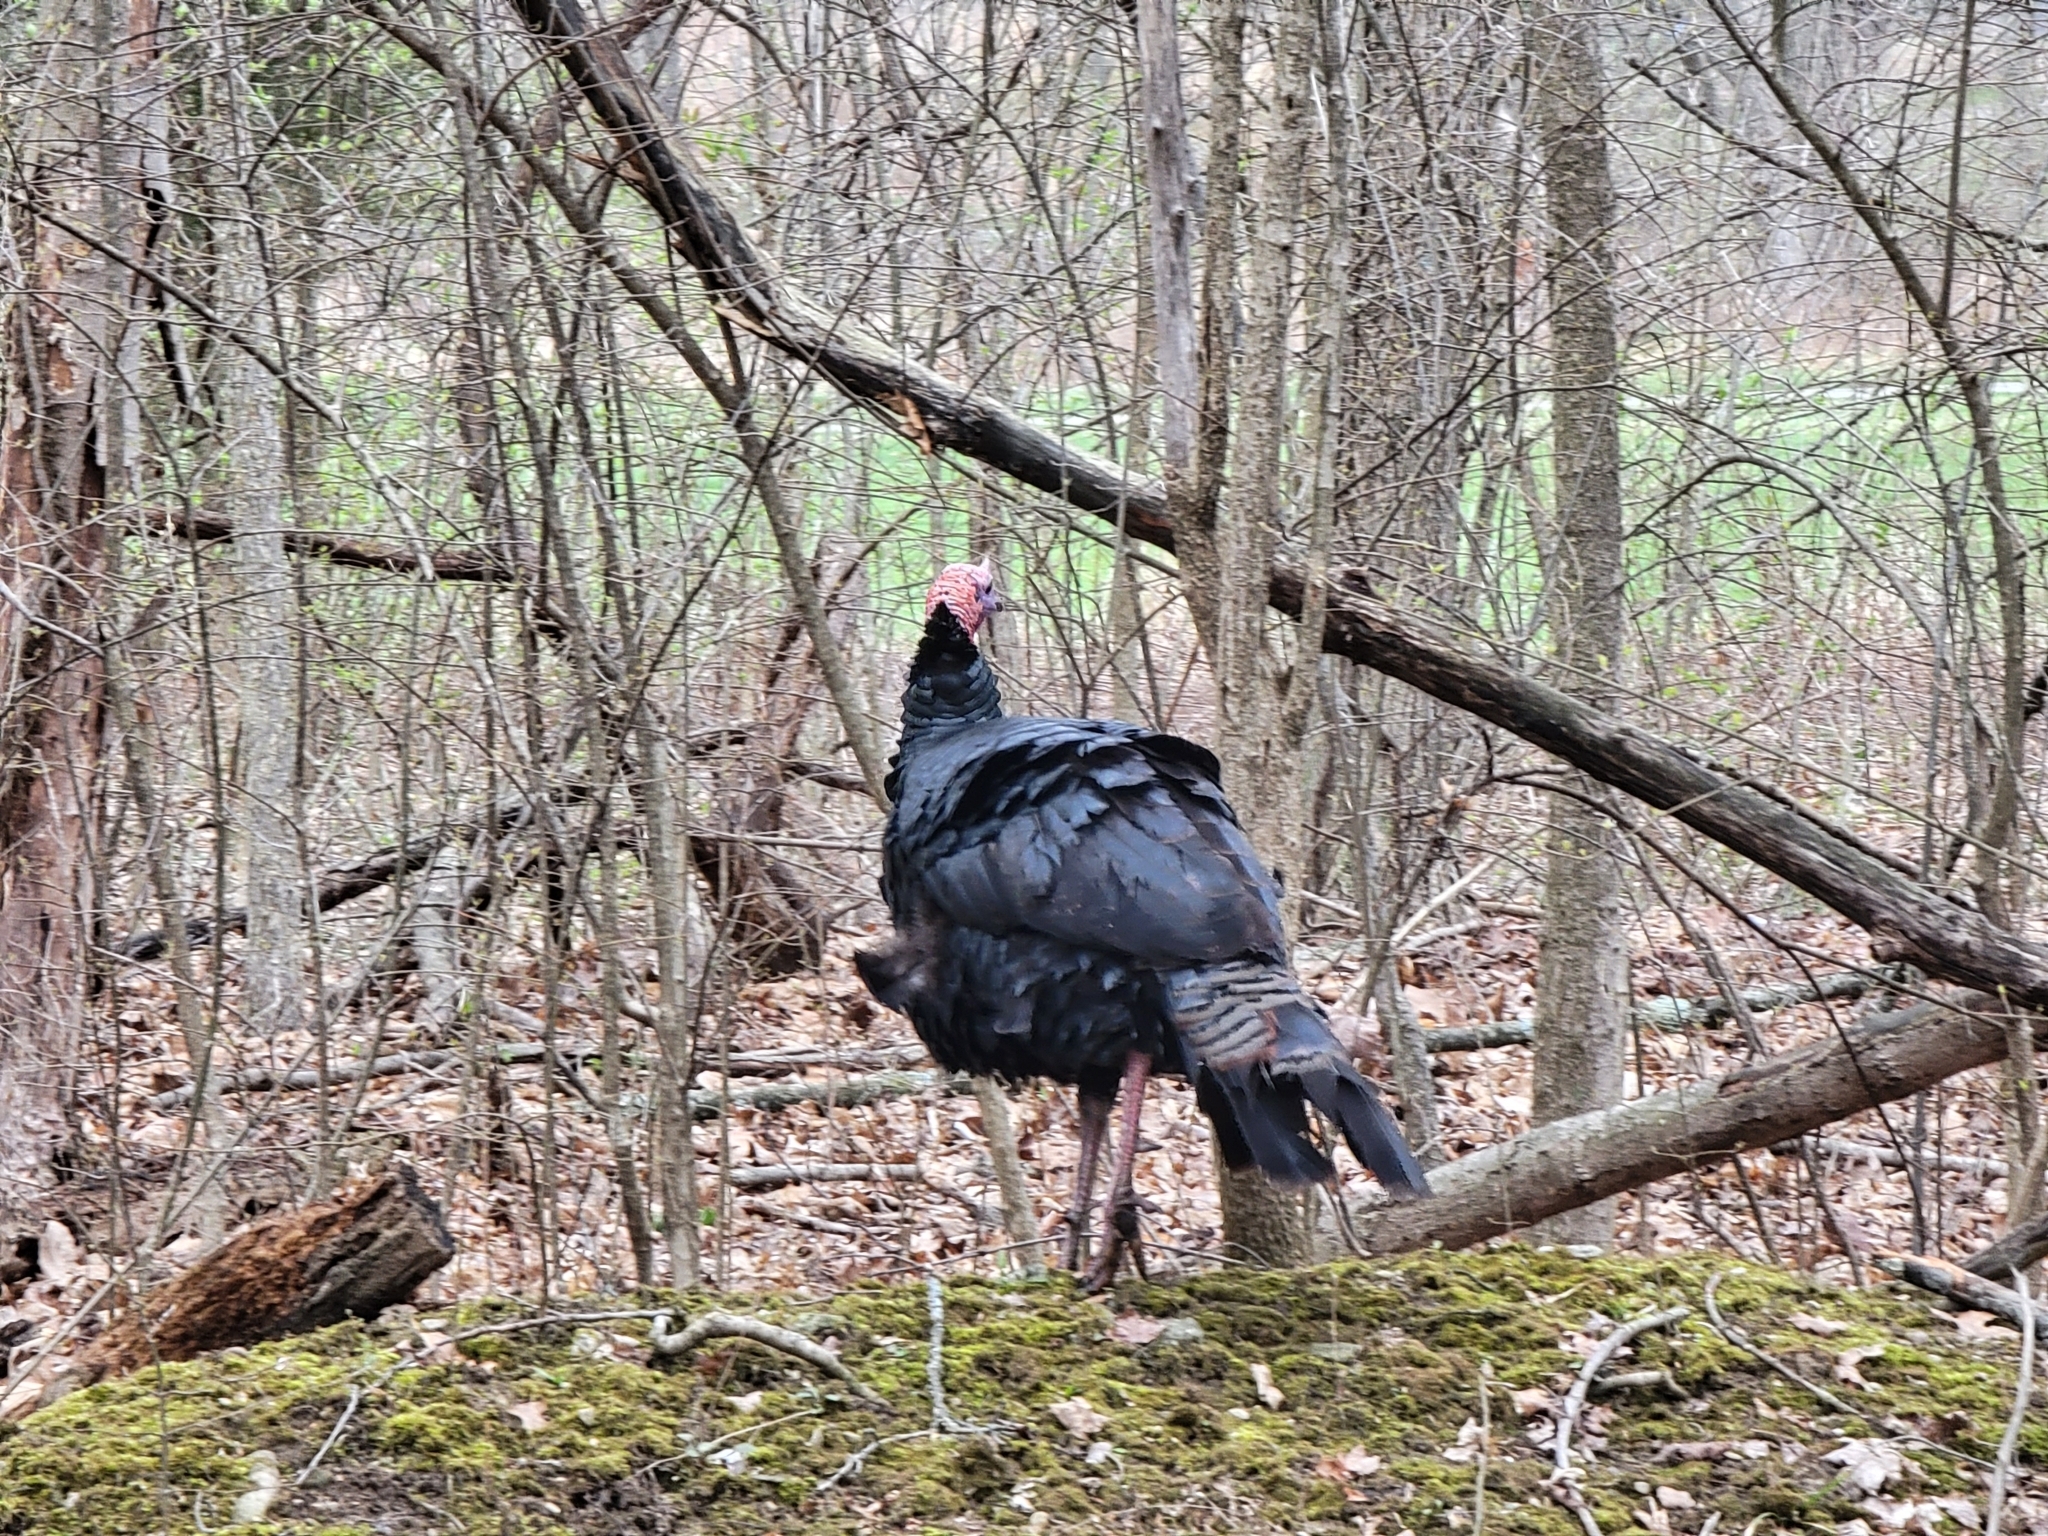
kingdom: Animalia
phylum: Chordata
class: Aves
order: Galliformes
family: Phasianidae
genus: Meleagris
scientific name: Meleagris gallopavo
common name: Wild turkey
